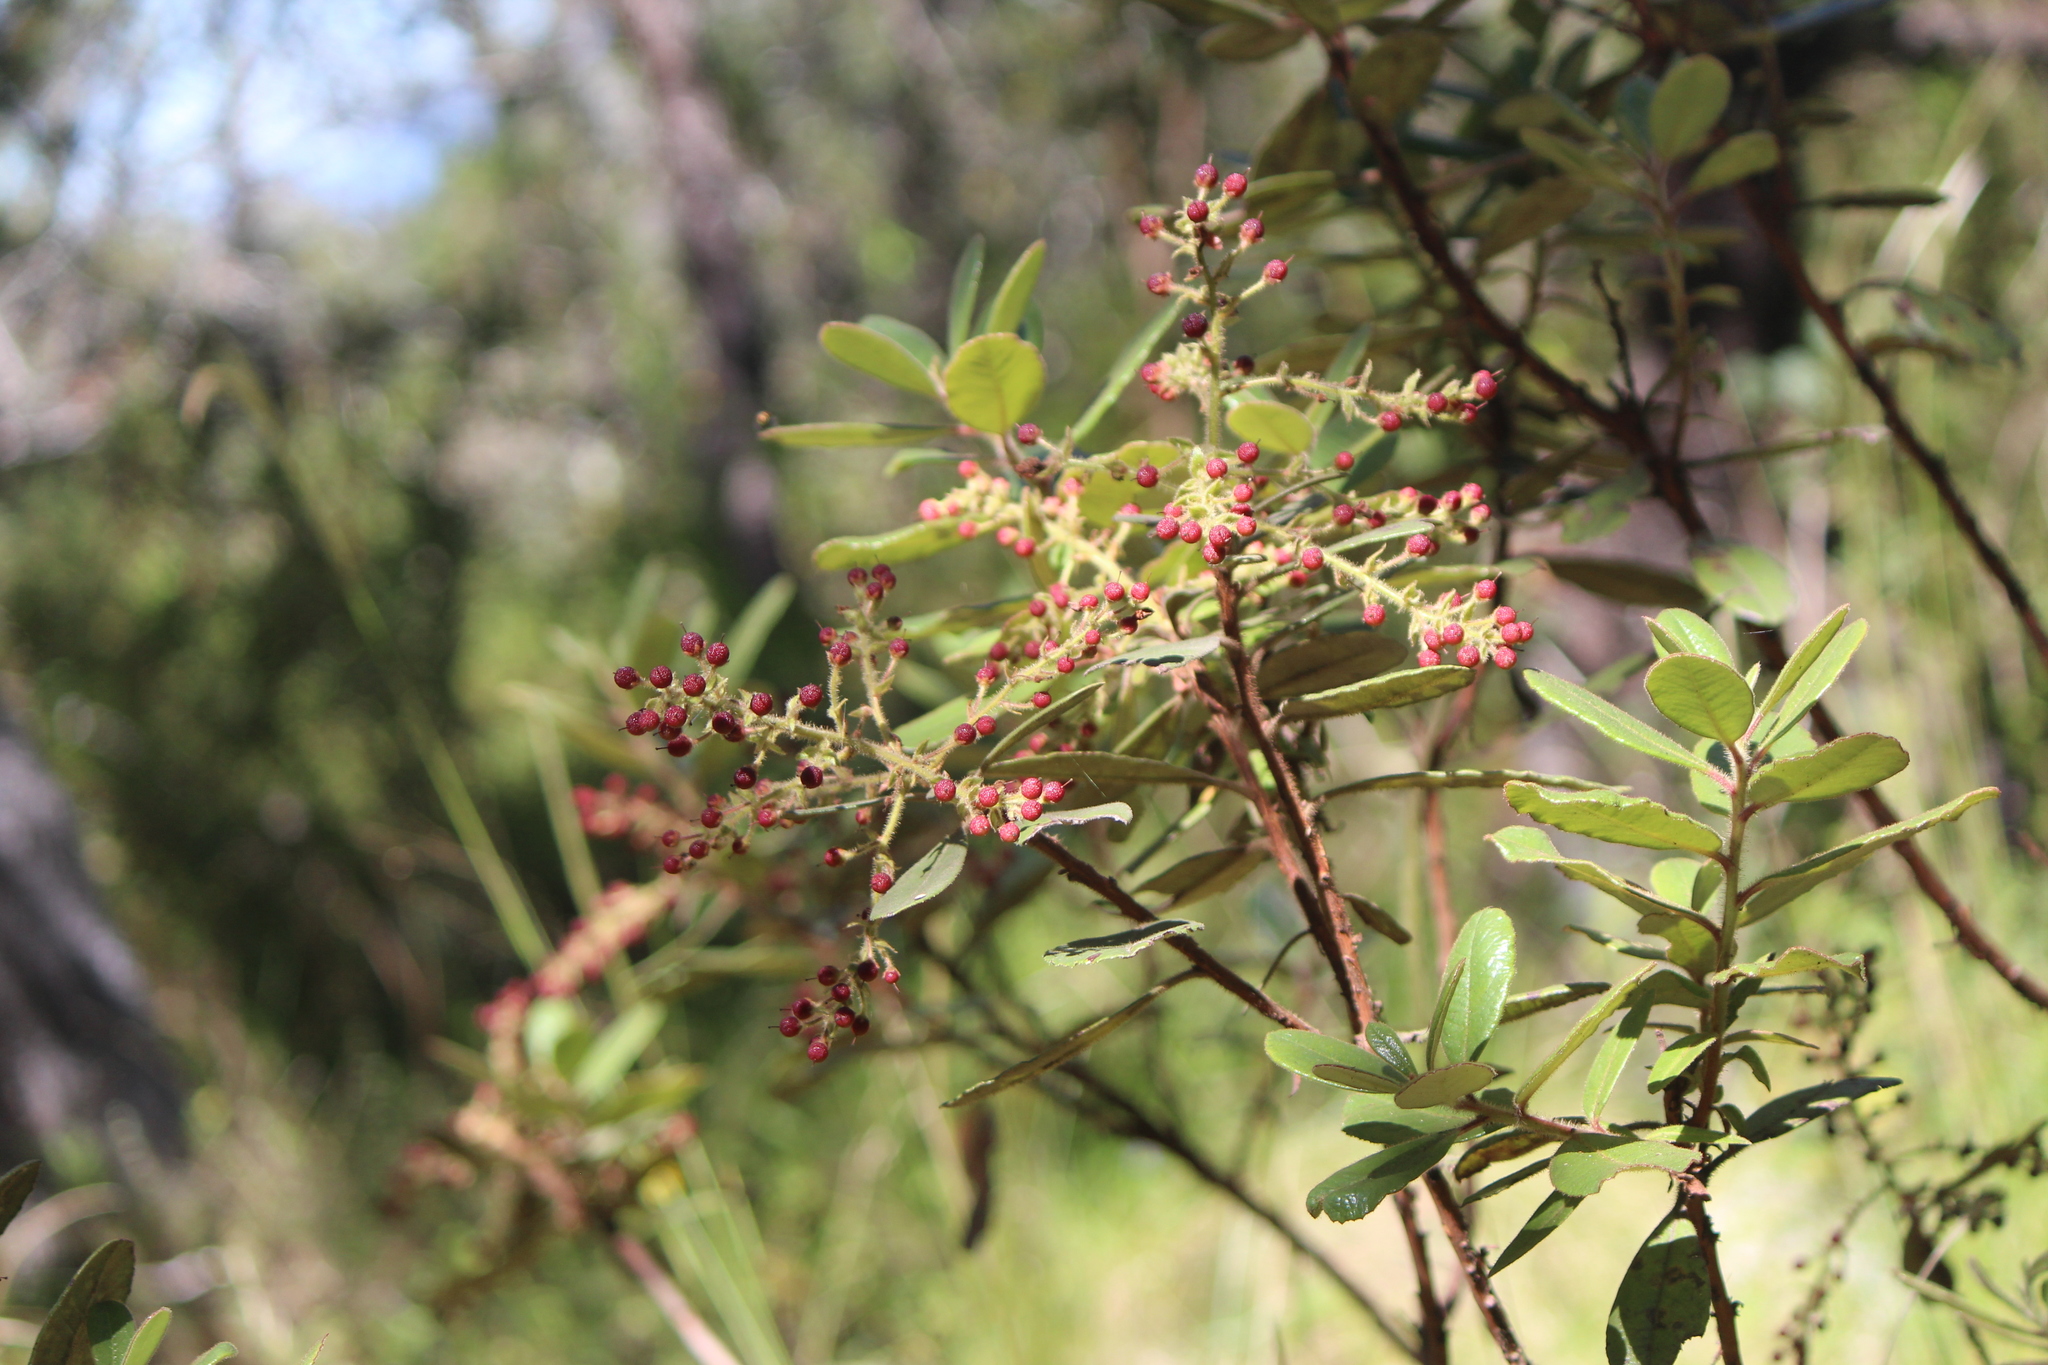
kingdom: Plantae
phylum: Tracheophyta
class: Magnoliopsida
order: Ericales
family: Ericaceae
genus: Arbutus
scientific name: Arbutus xalapensis
